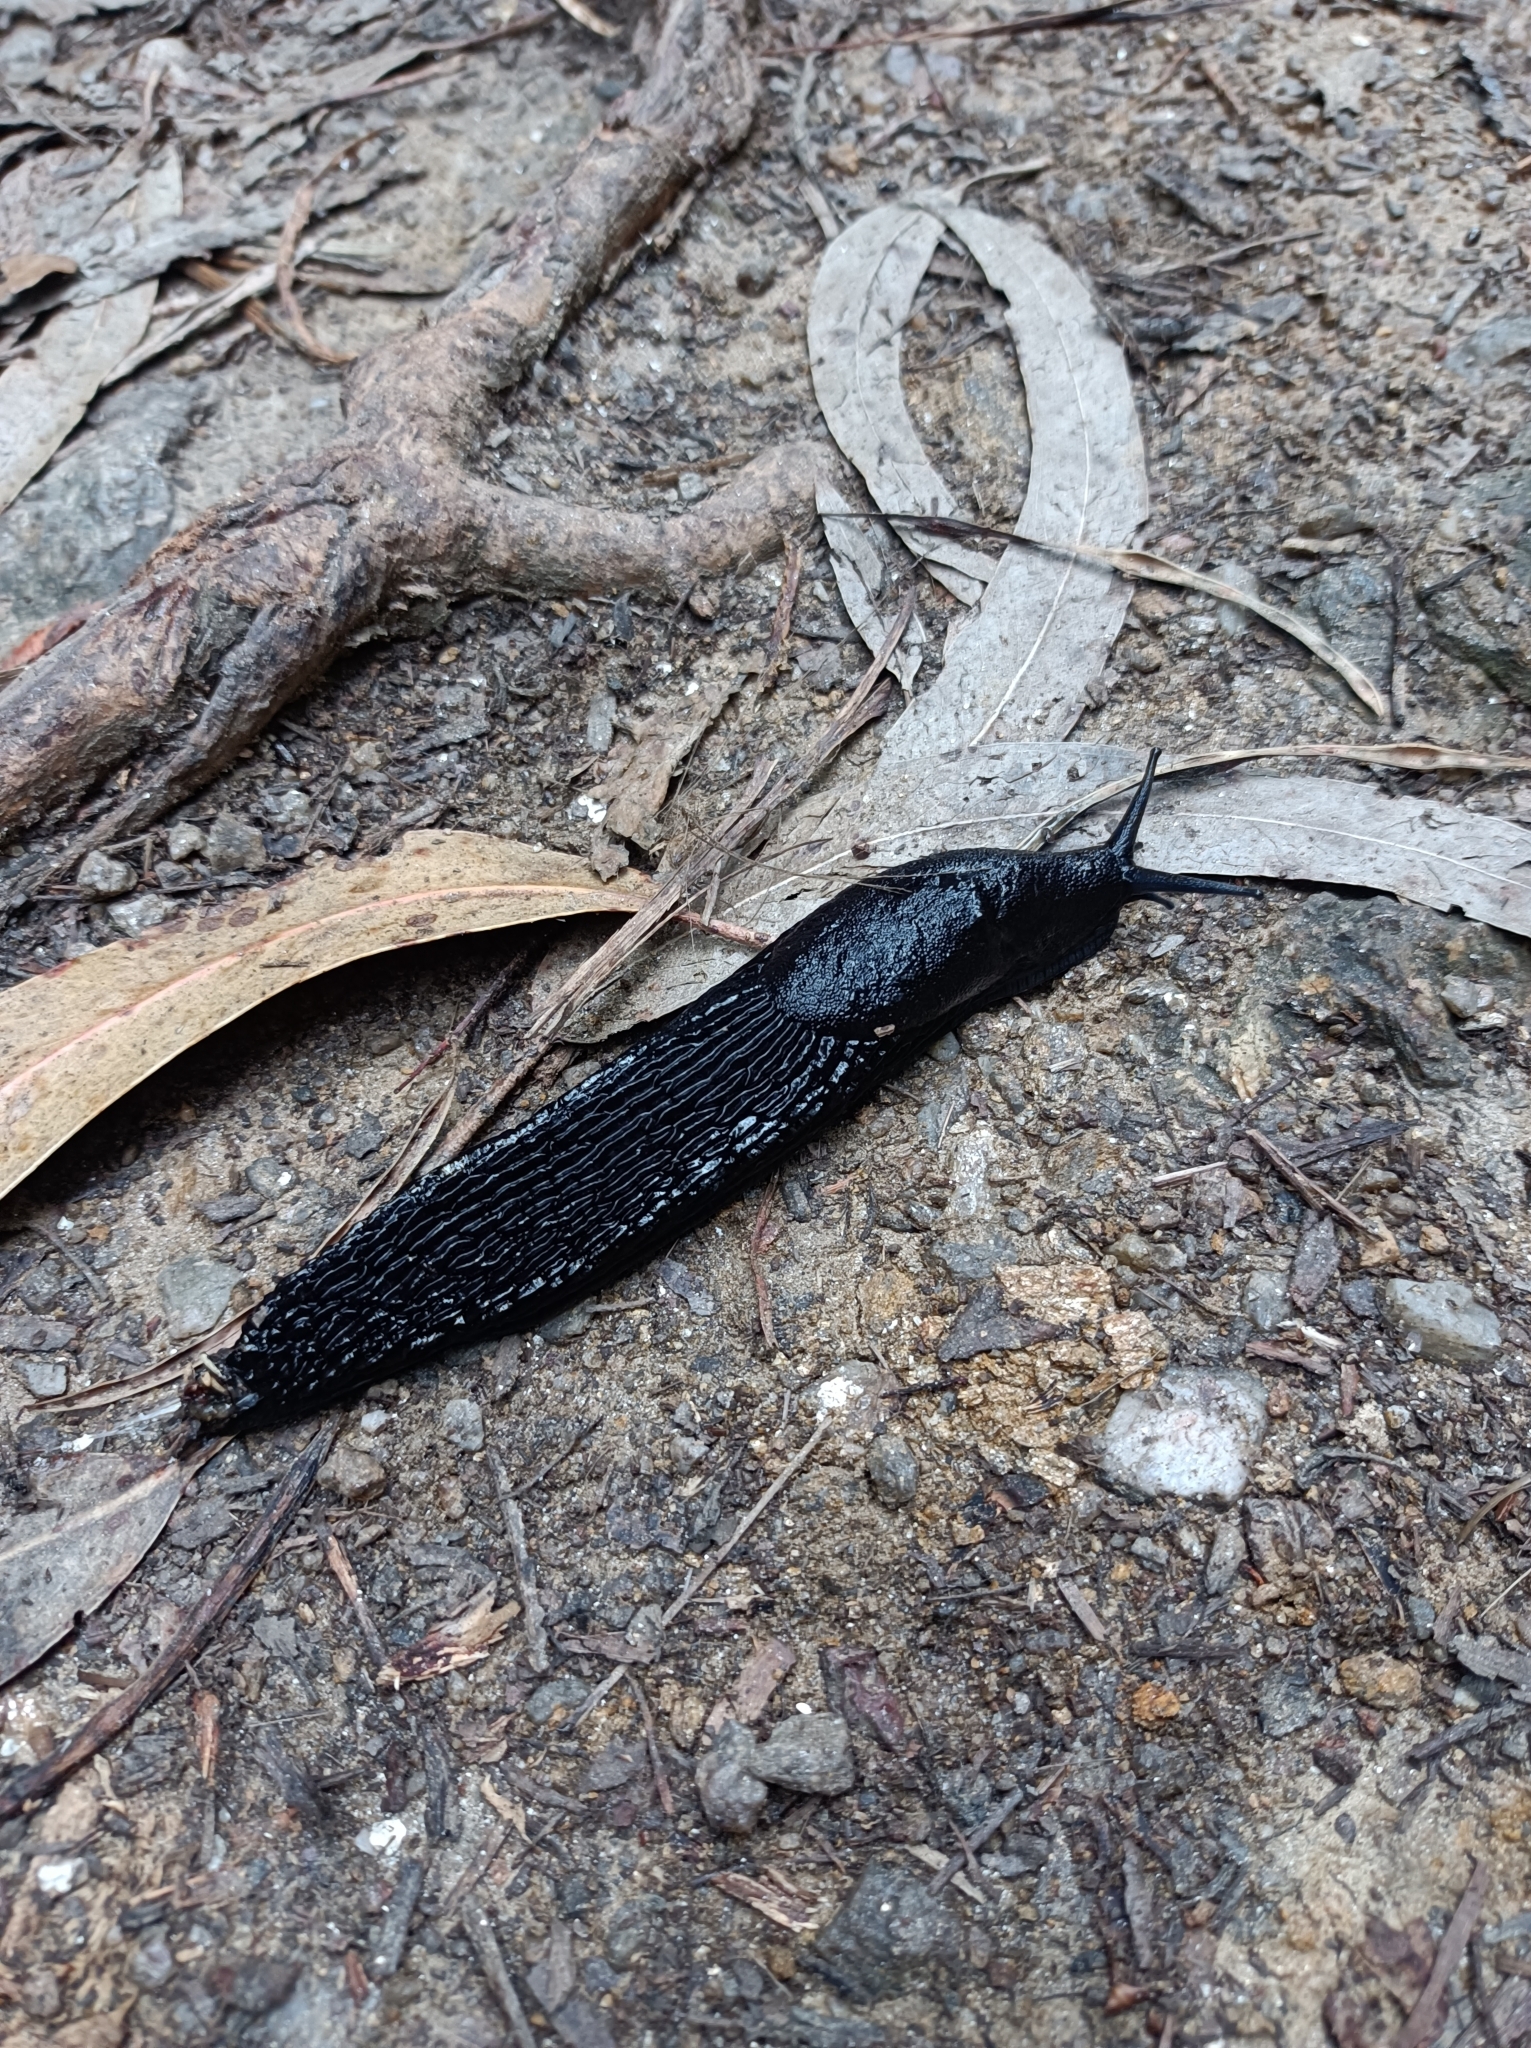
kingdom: Animalia
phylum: Mollusca
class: Gastropoda
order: Stylommatophora
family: Arionidae
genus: Arion
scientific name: Arion ater
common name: Black arion
